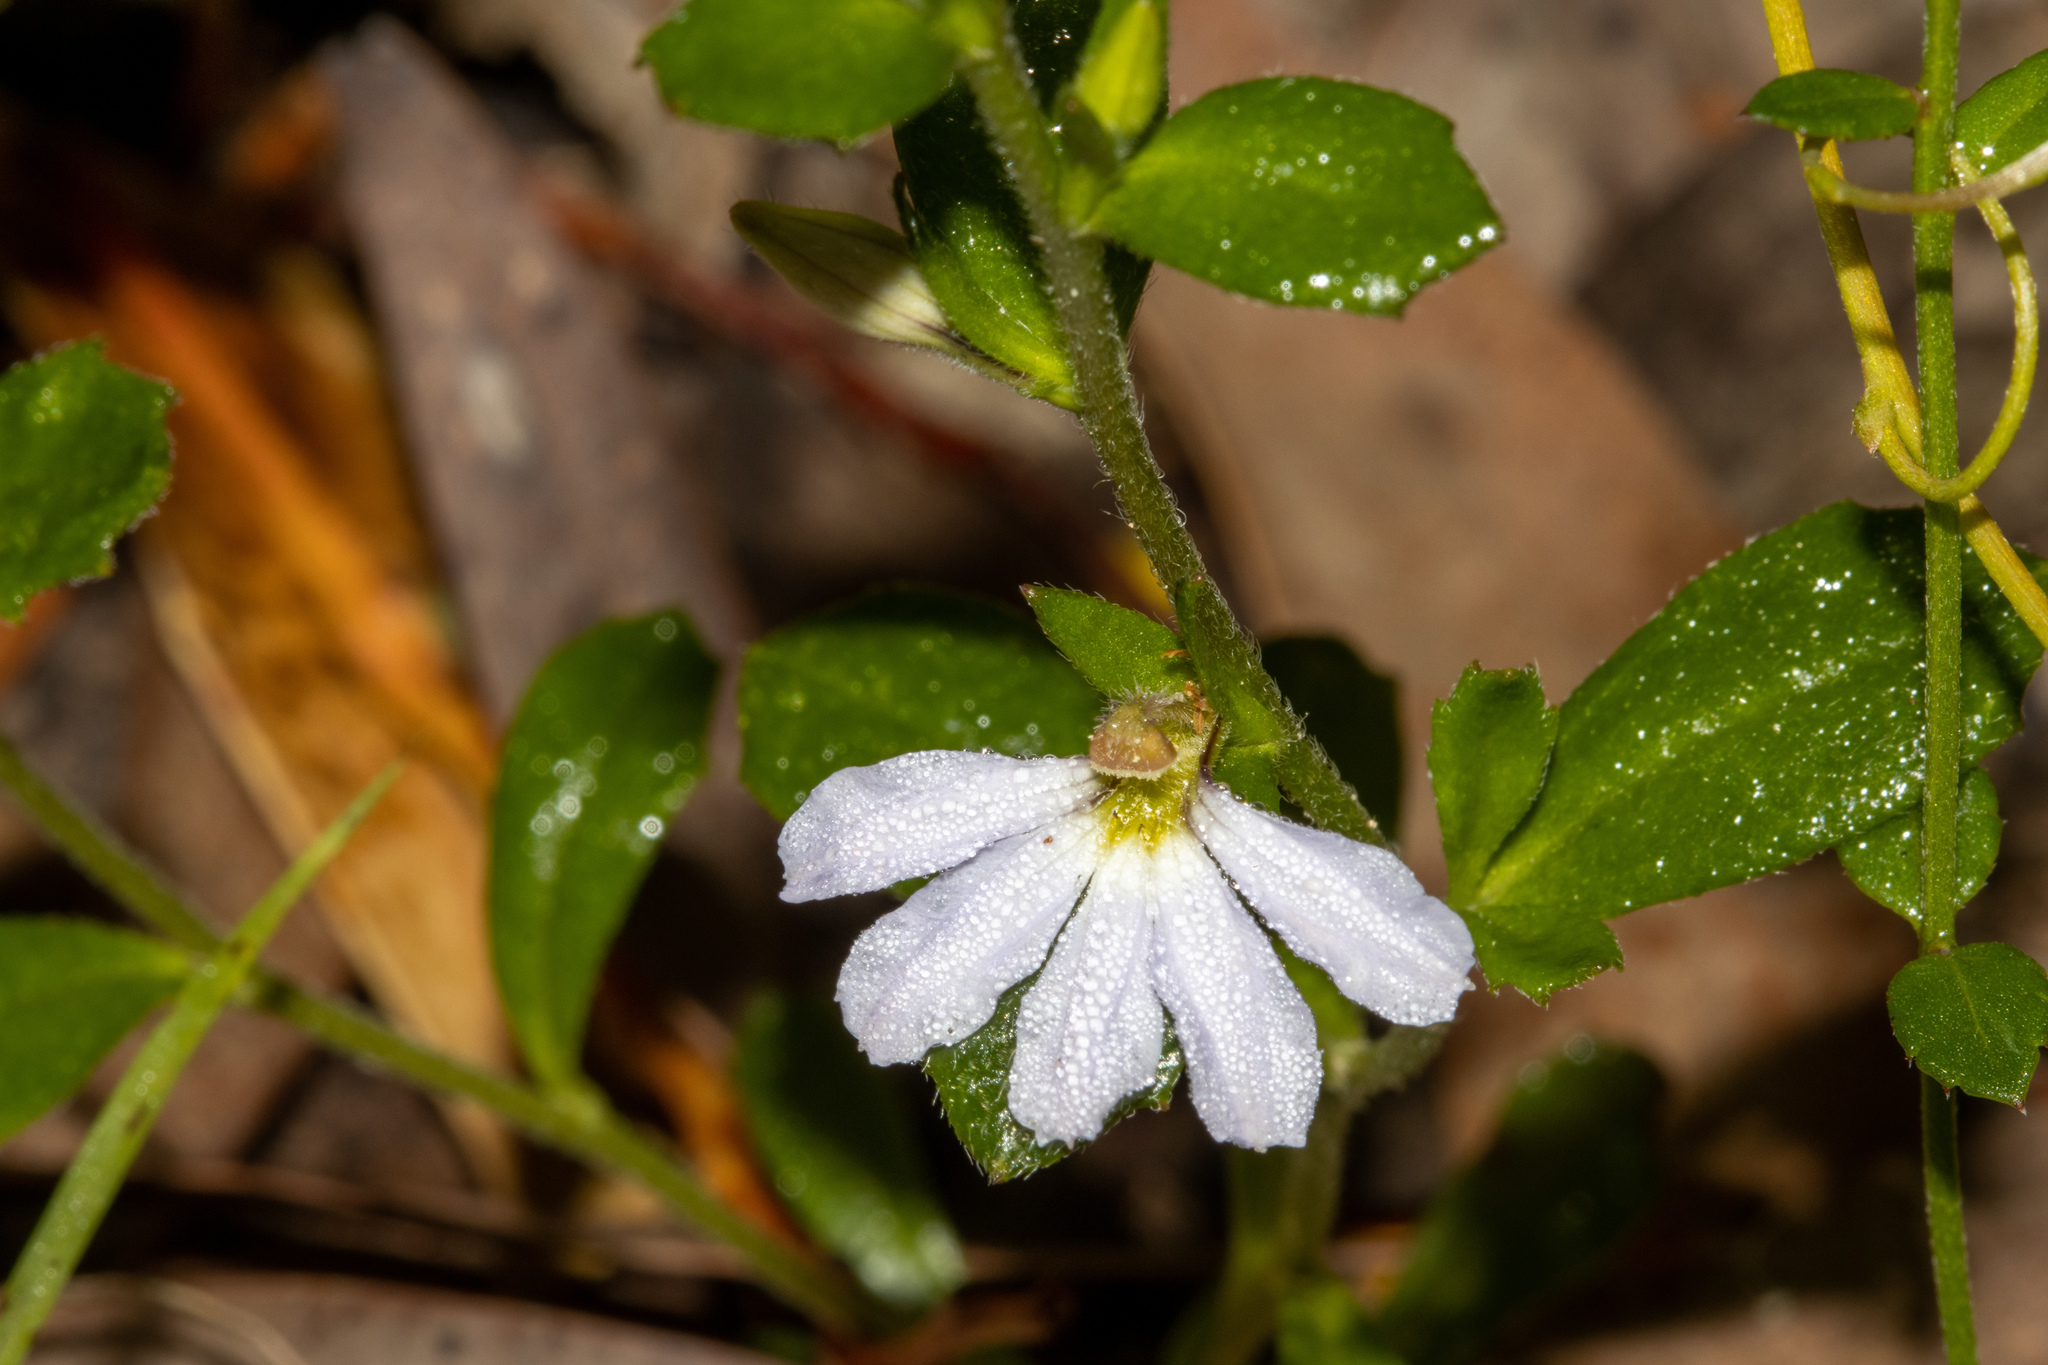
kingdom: Plantae
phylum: Tracheophyta
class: Magnoliopsida
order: Asterales
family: Goodeniaceae
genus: Scaevola
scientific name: Scaevola albida
